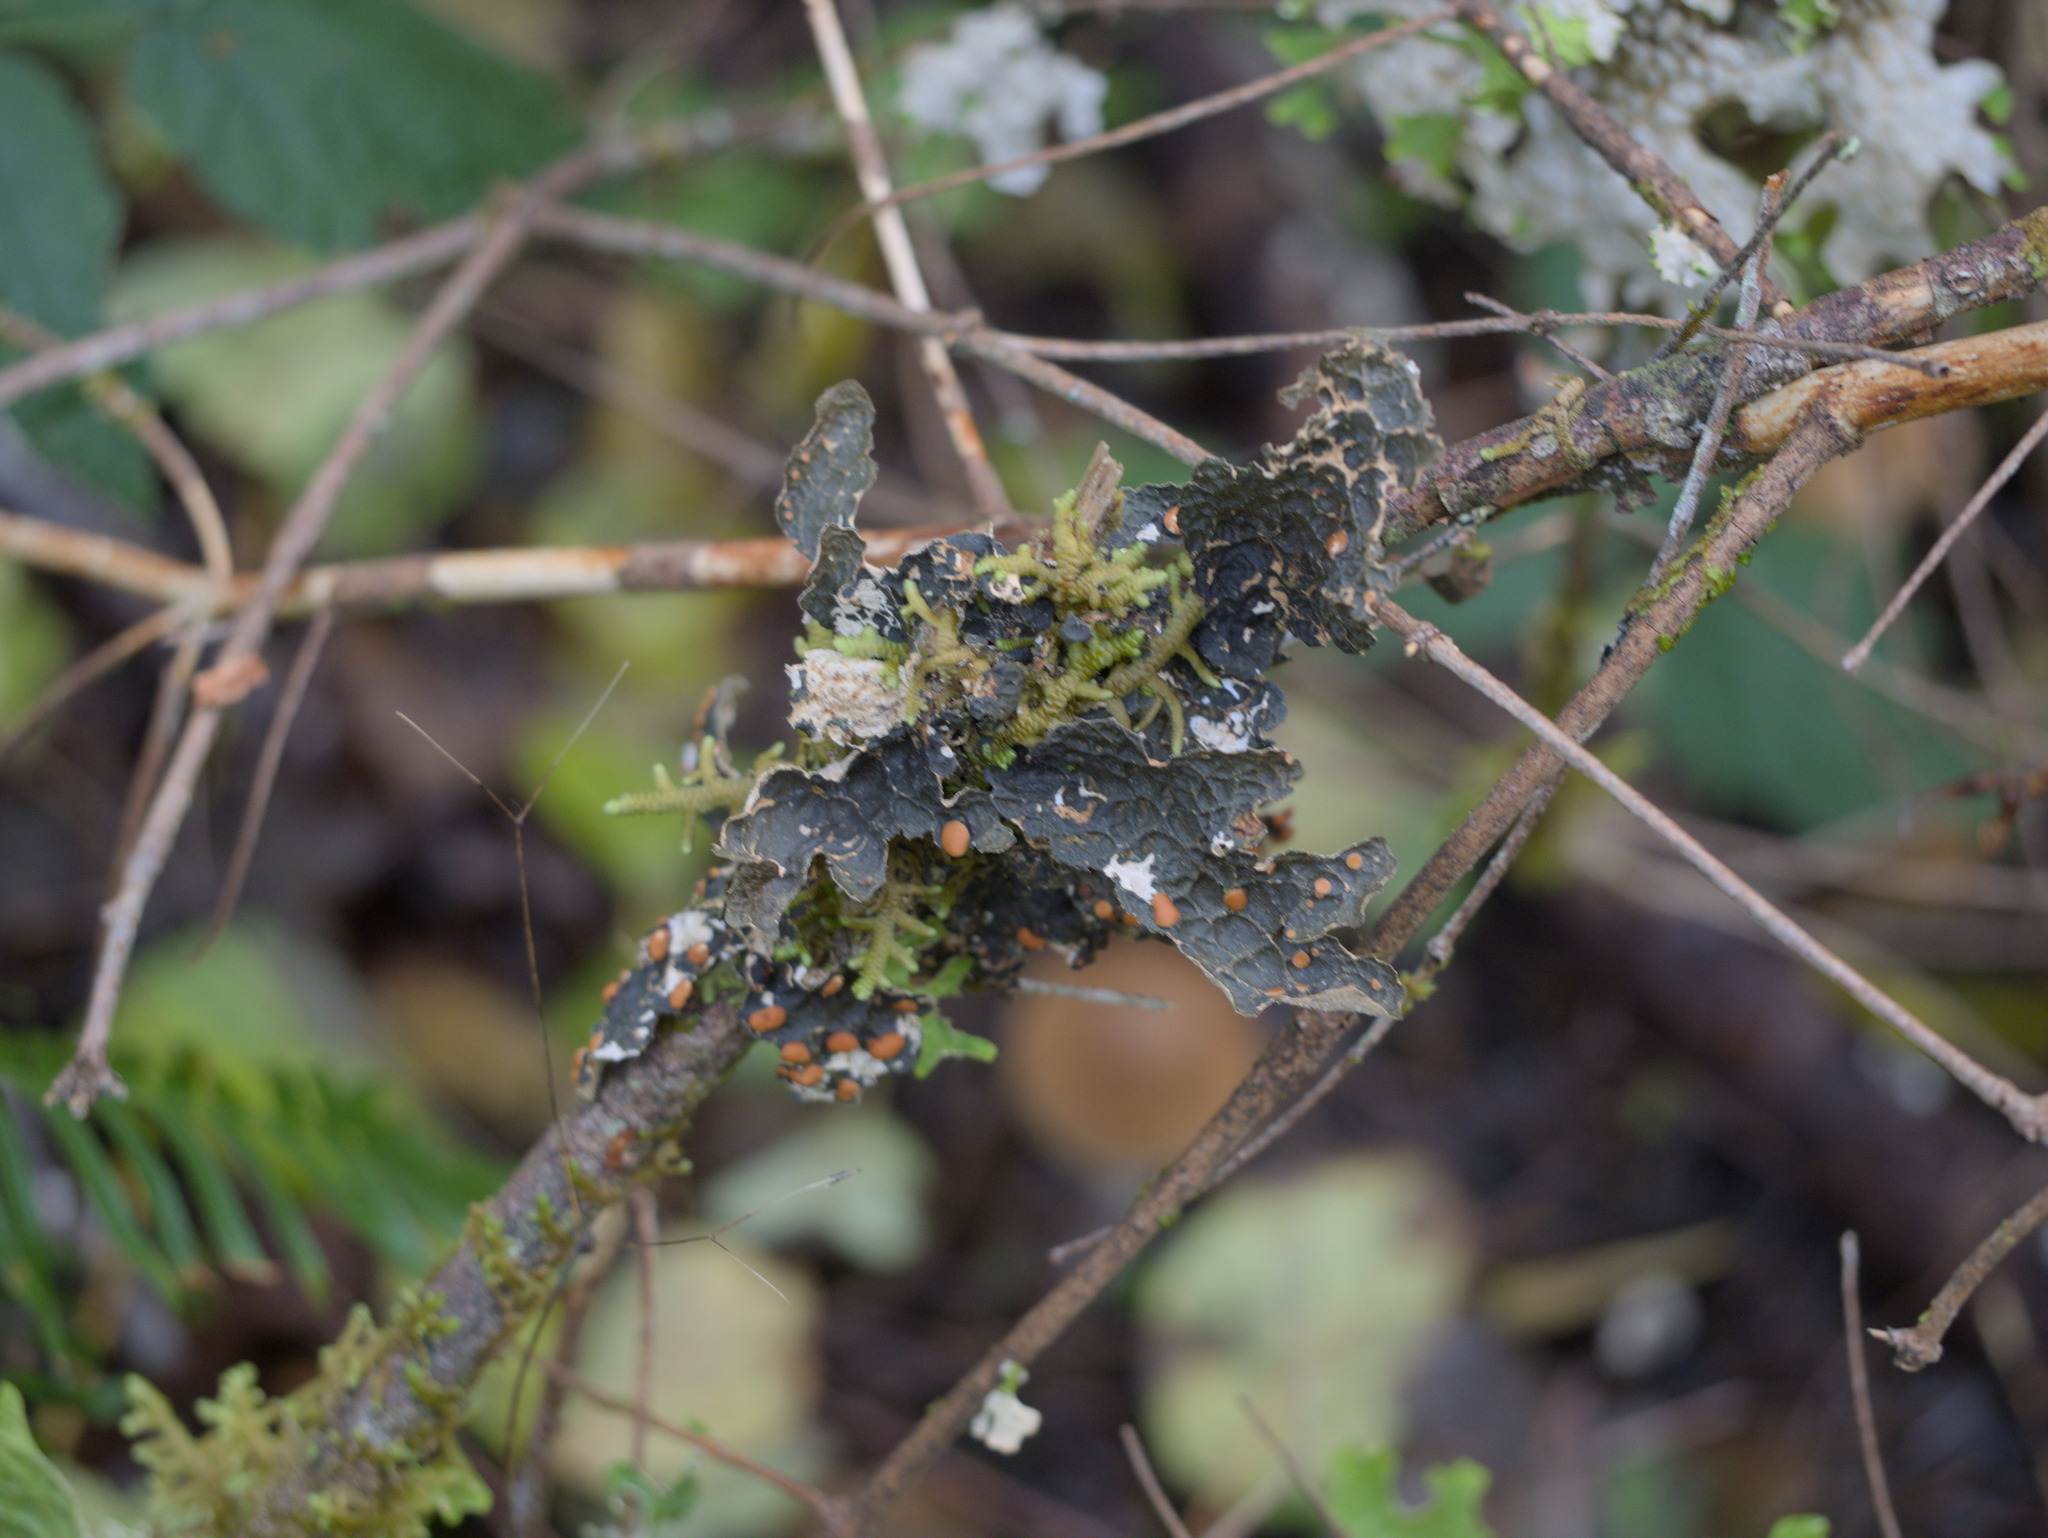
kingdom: Fungi
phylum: Ascomycota
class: Lecanoromycetes
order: Peltigerales
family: Lobariaceae
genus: Lobaria
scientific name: Lobaria anthraspis
